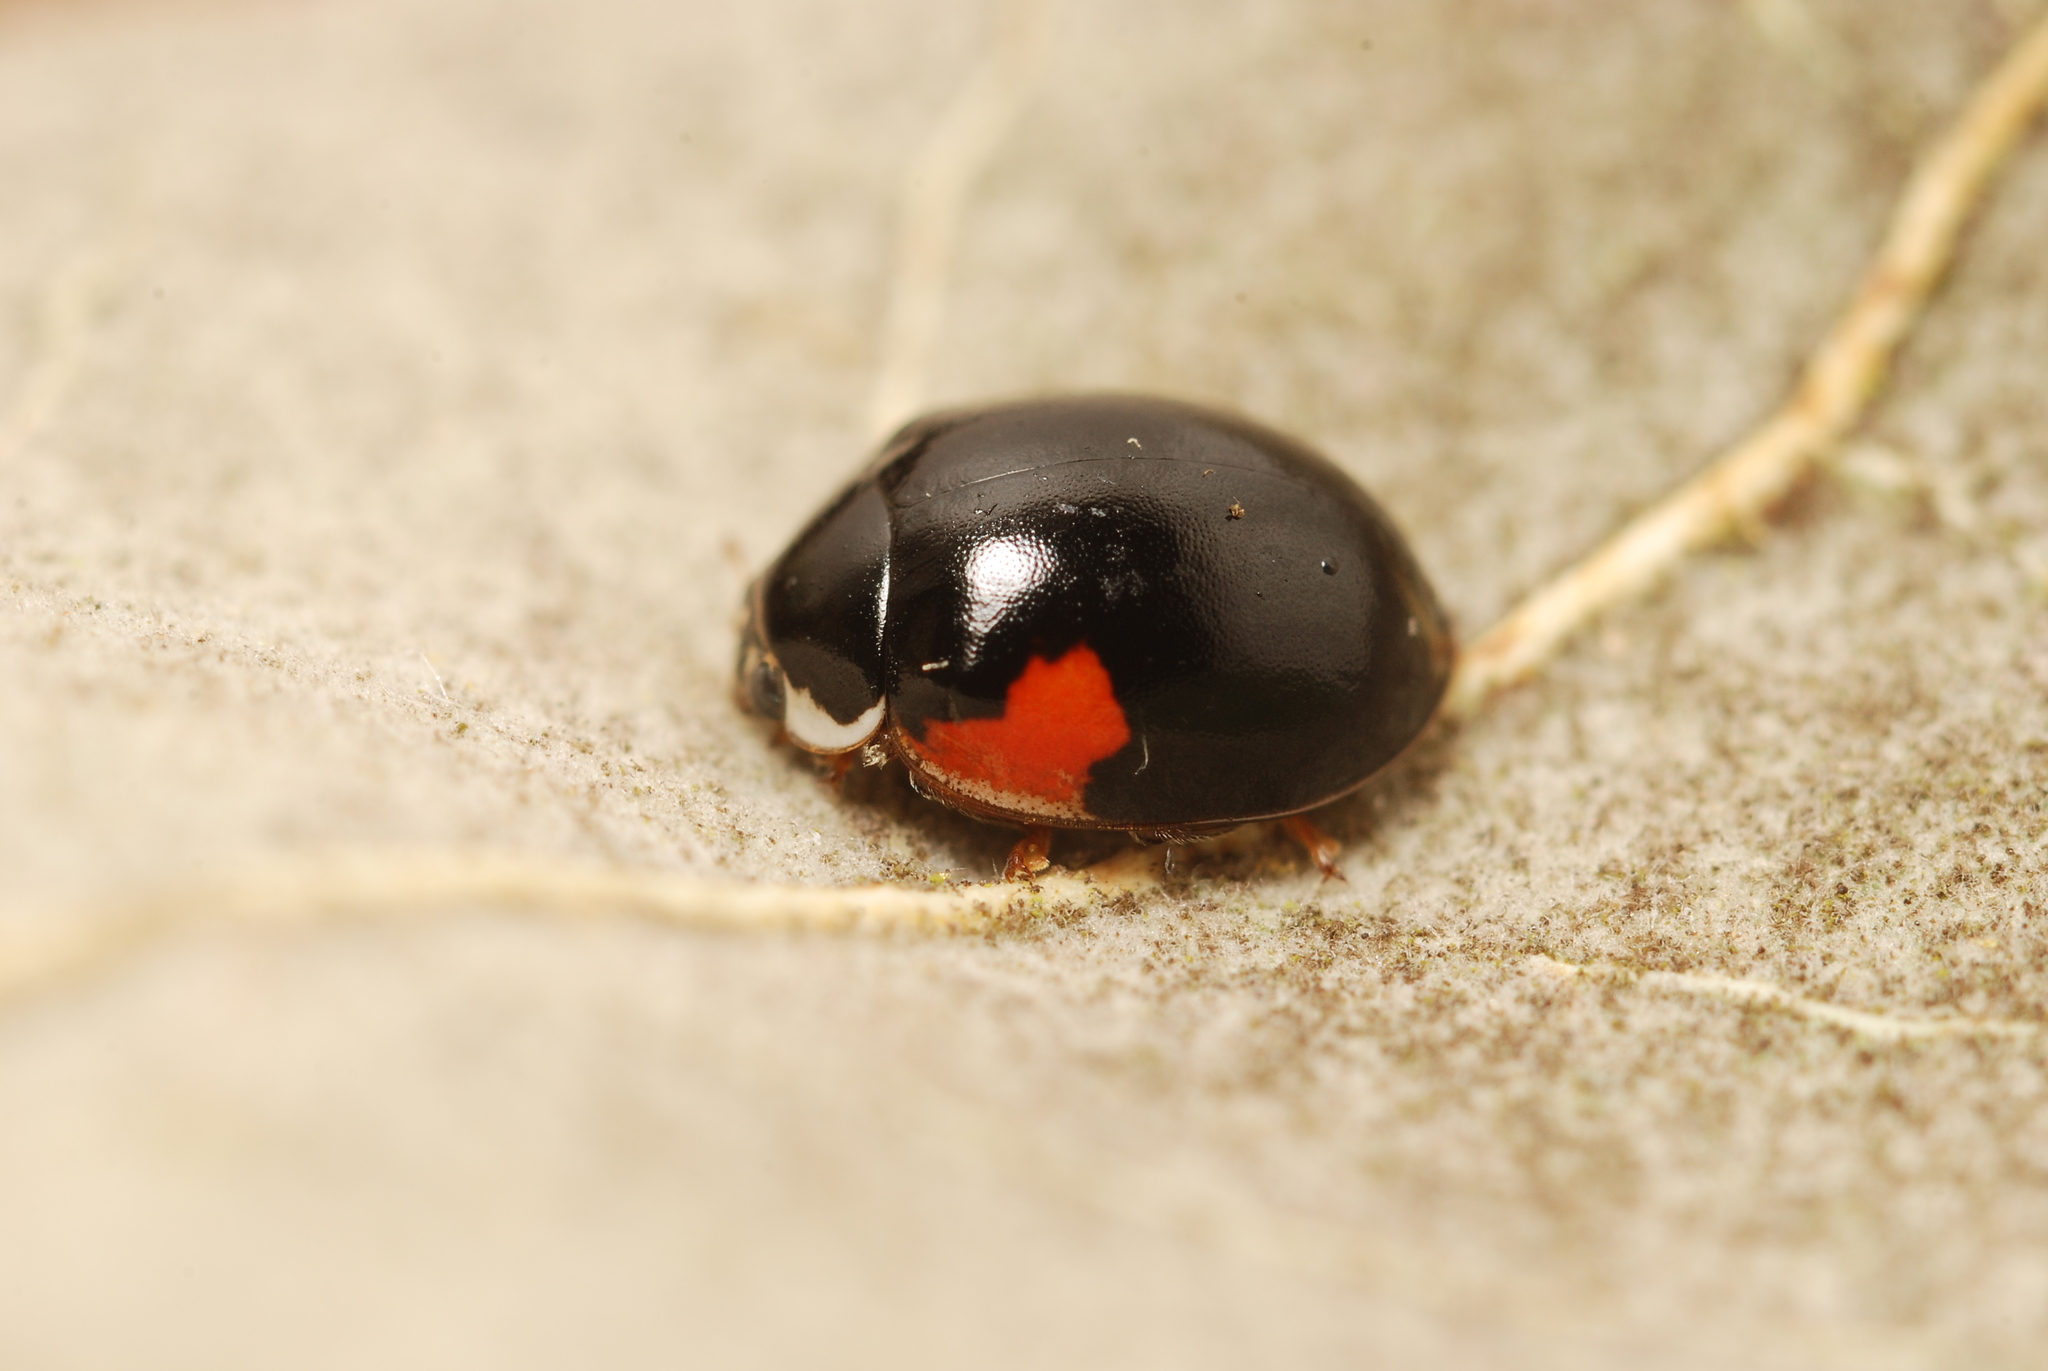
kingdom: Animalia
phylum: Arthropoda
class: Insecta
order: Coleoptera
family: Coccinellidae
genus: Adalia
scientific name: Adalia decempunctata
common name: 10-spot ladybird
